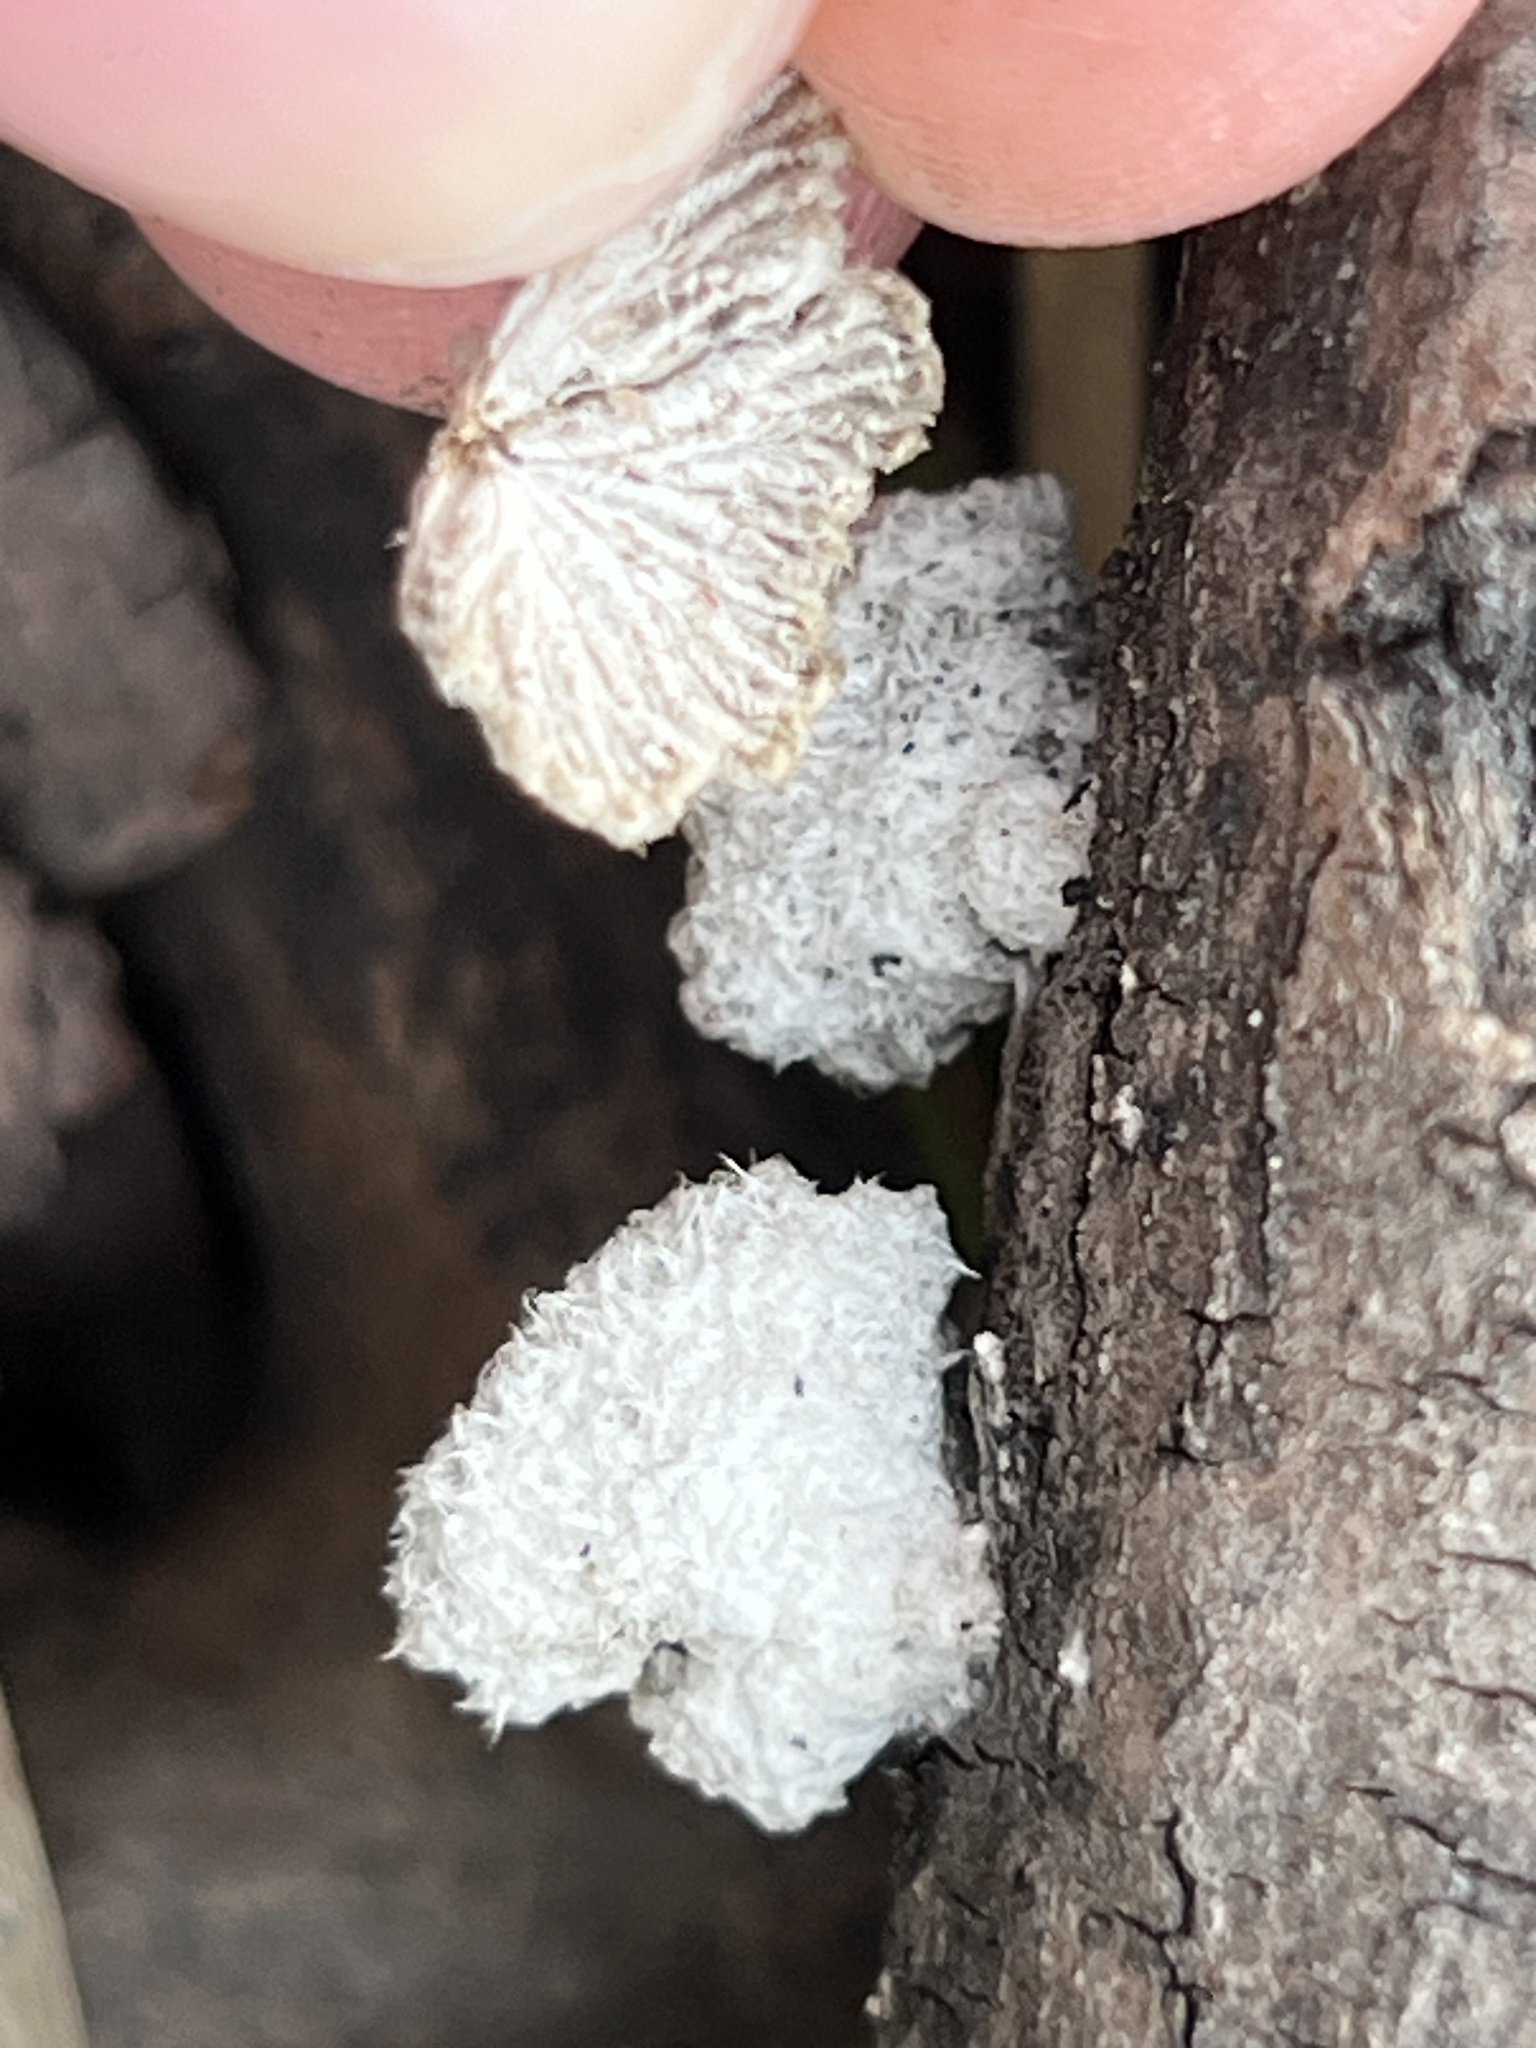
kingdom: Fungi
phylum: Basidiomycota
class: Agaricomycetes
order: Agaricales
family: Schizophyllaceae
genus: Schizophyllum
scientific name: Schizophyllum commune
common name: Common porecrust
